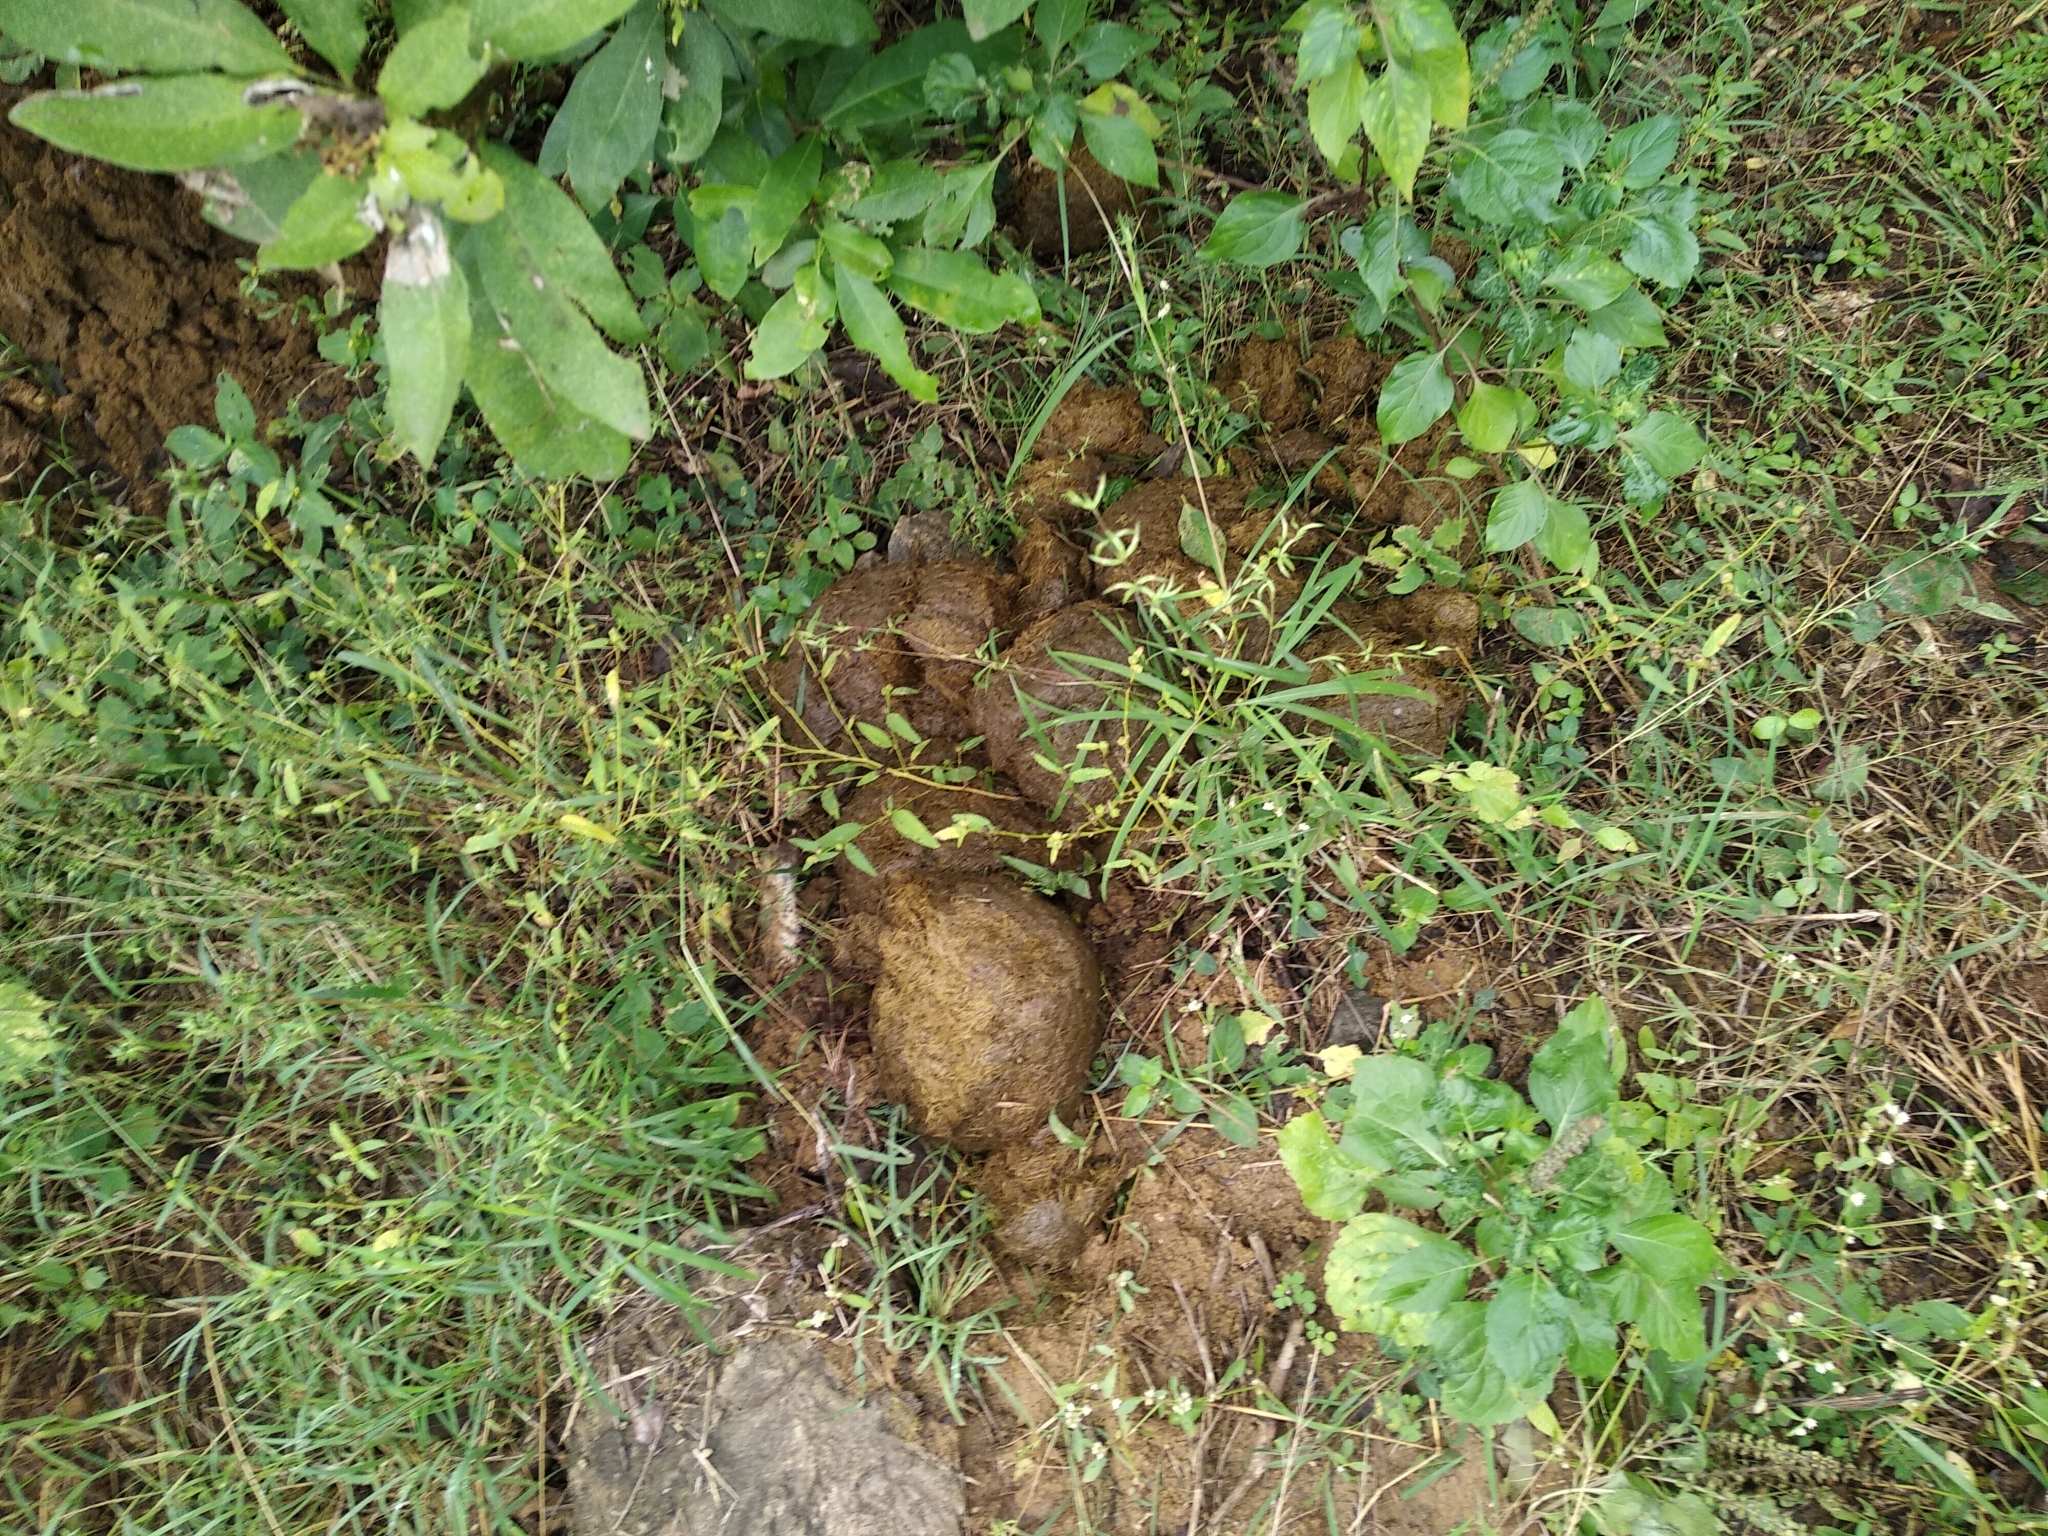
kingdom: Animalia
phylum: Chordata
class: Mammalia
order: Proboscidea
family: Elephantidae
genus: Elephas
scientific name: Elephas maximus
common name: Asian elephant
